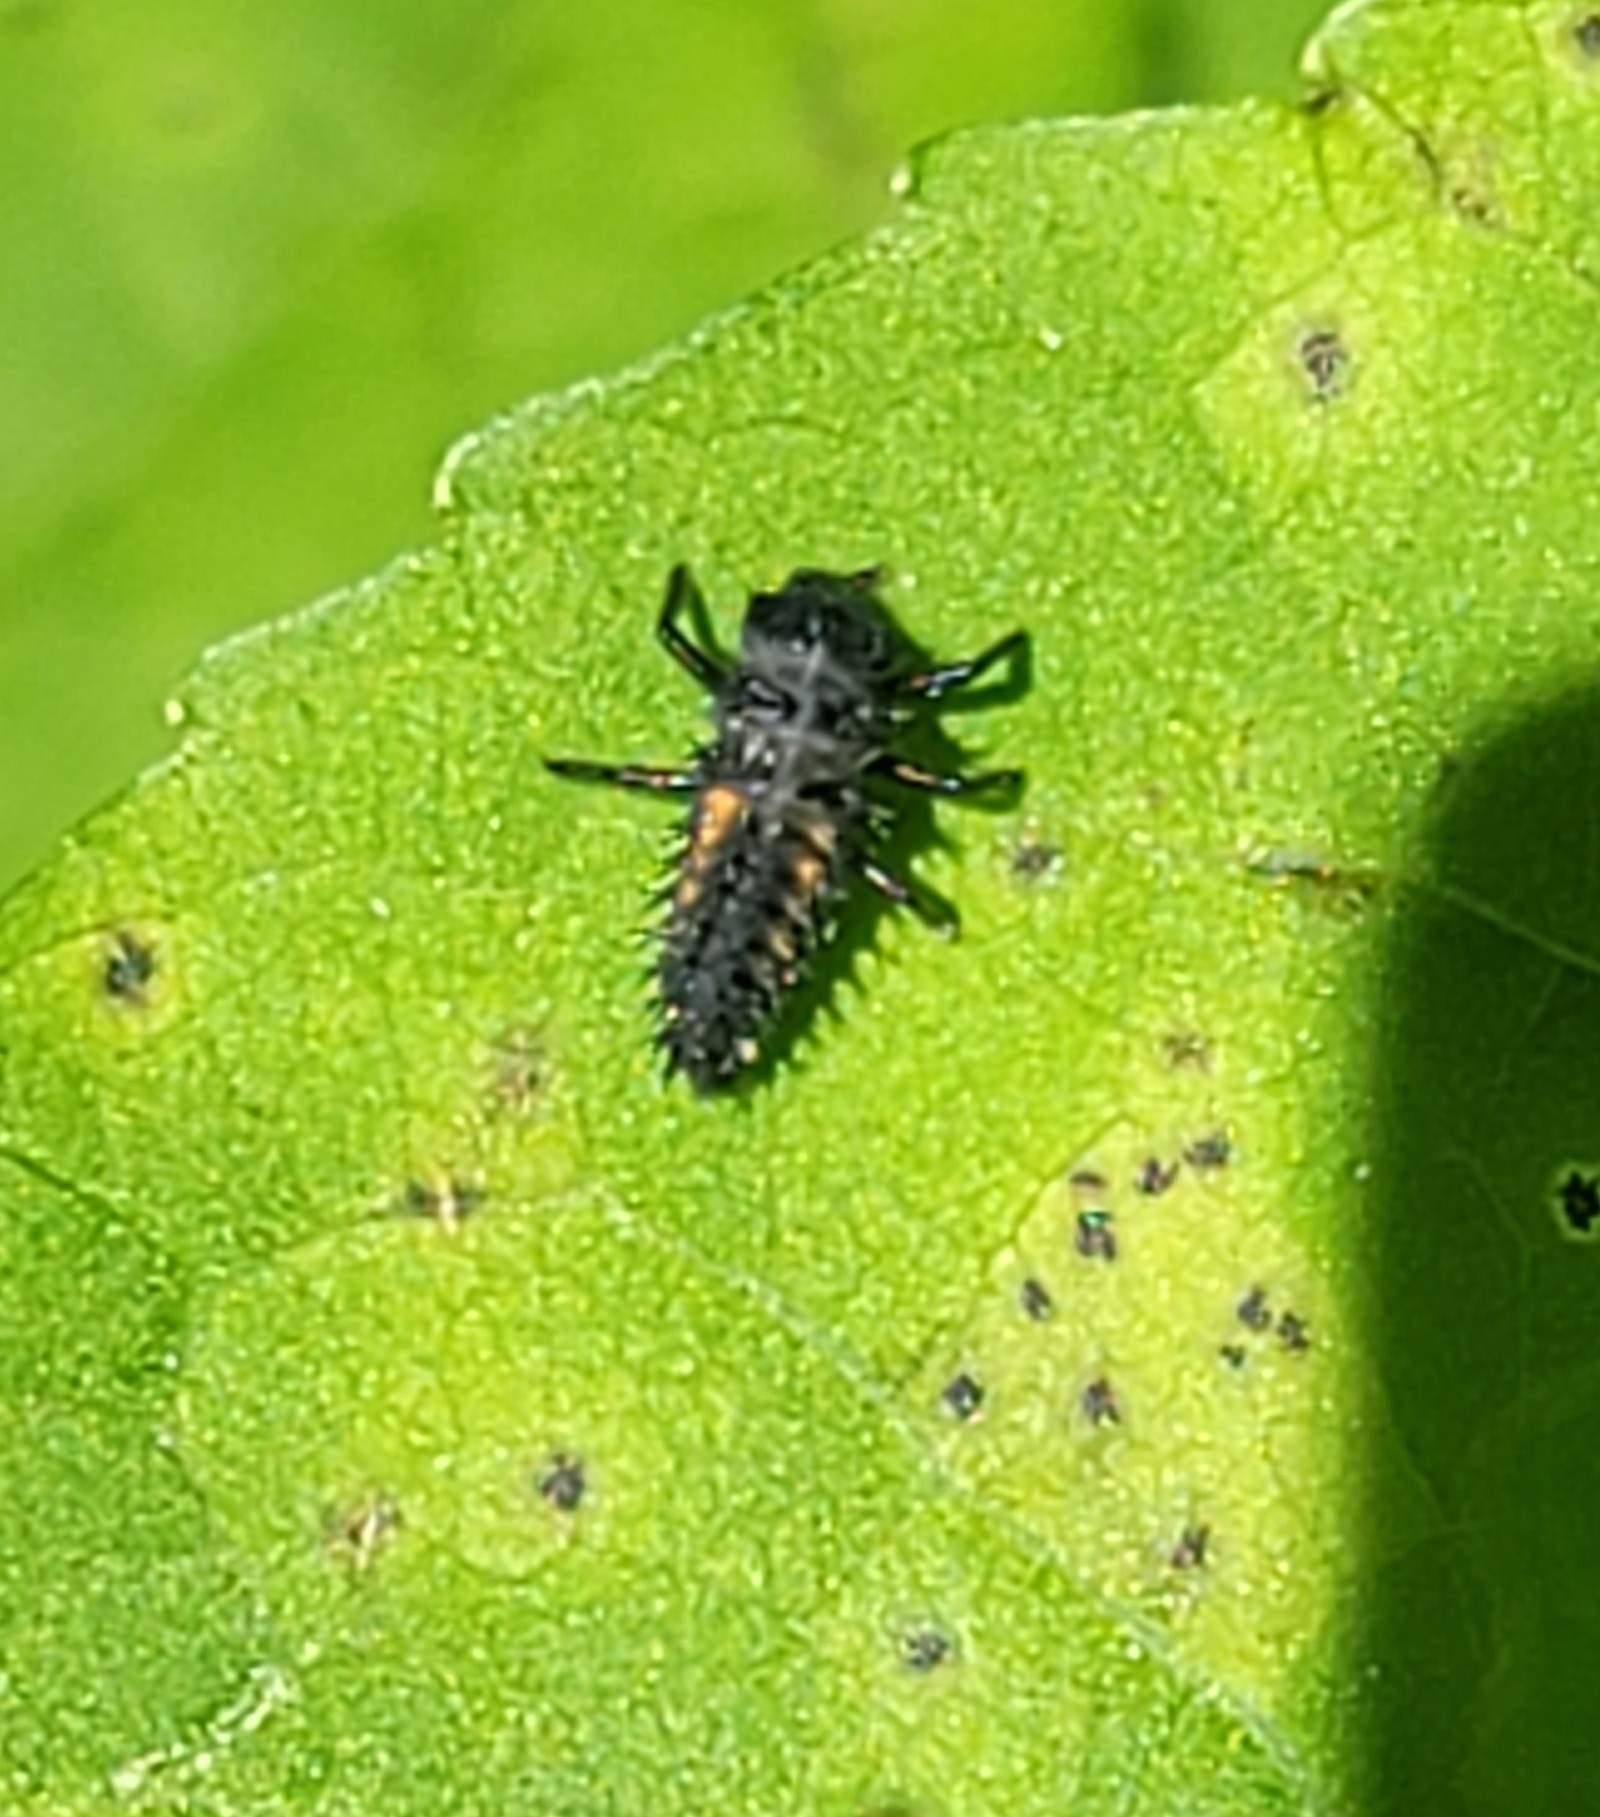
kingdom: Animalia
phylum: Arthropoda
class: Insecta
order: Coleoptera
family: Coccinellidae
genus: Harmonia
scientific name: Harmonia axyridis
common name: Harlequin ladybird
